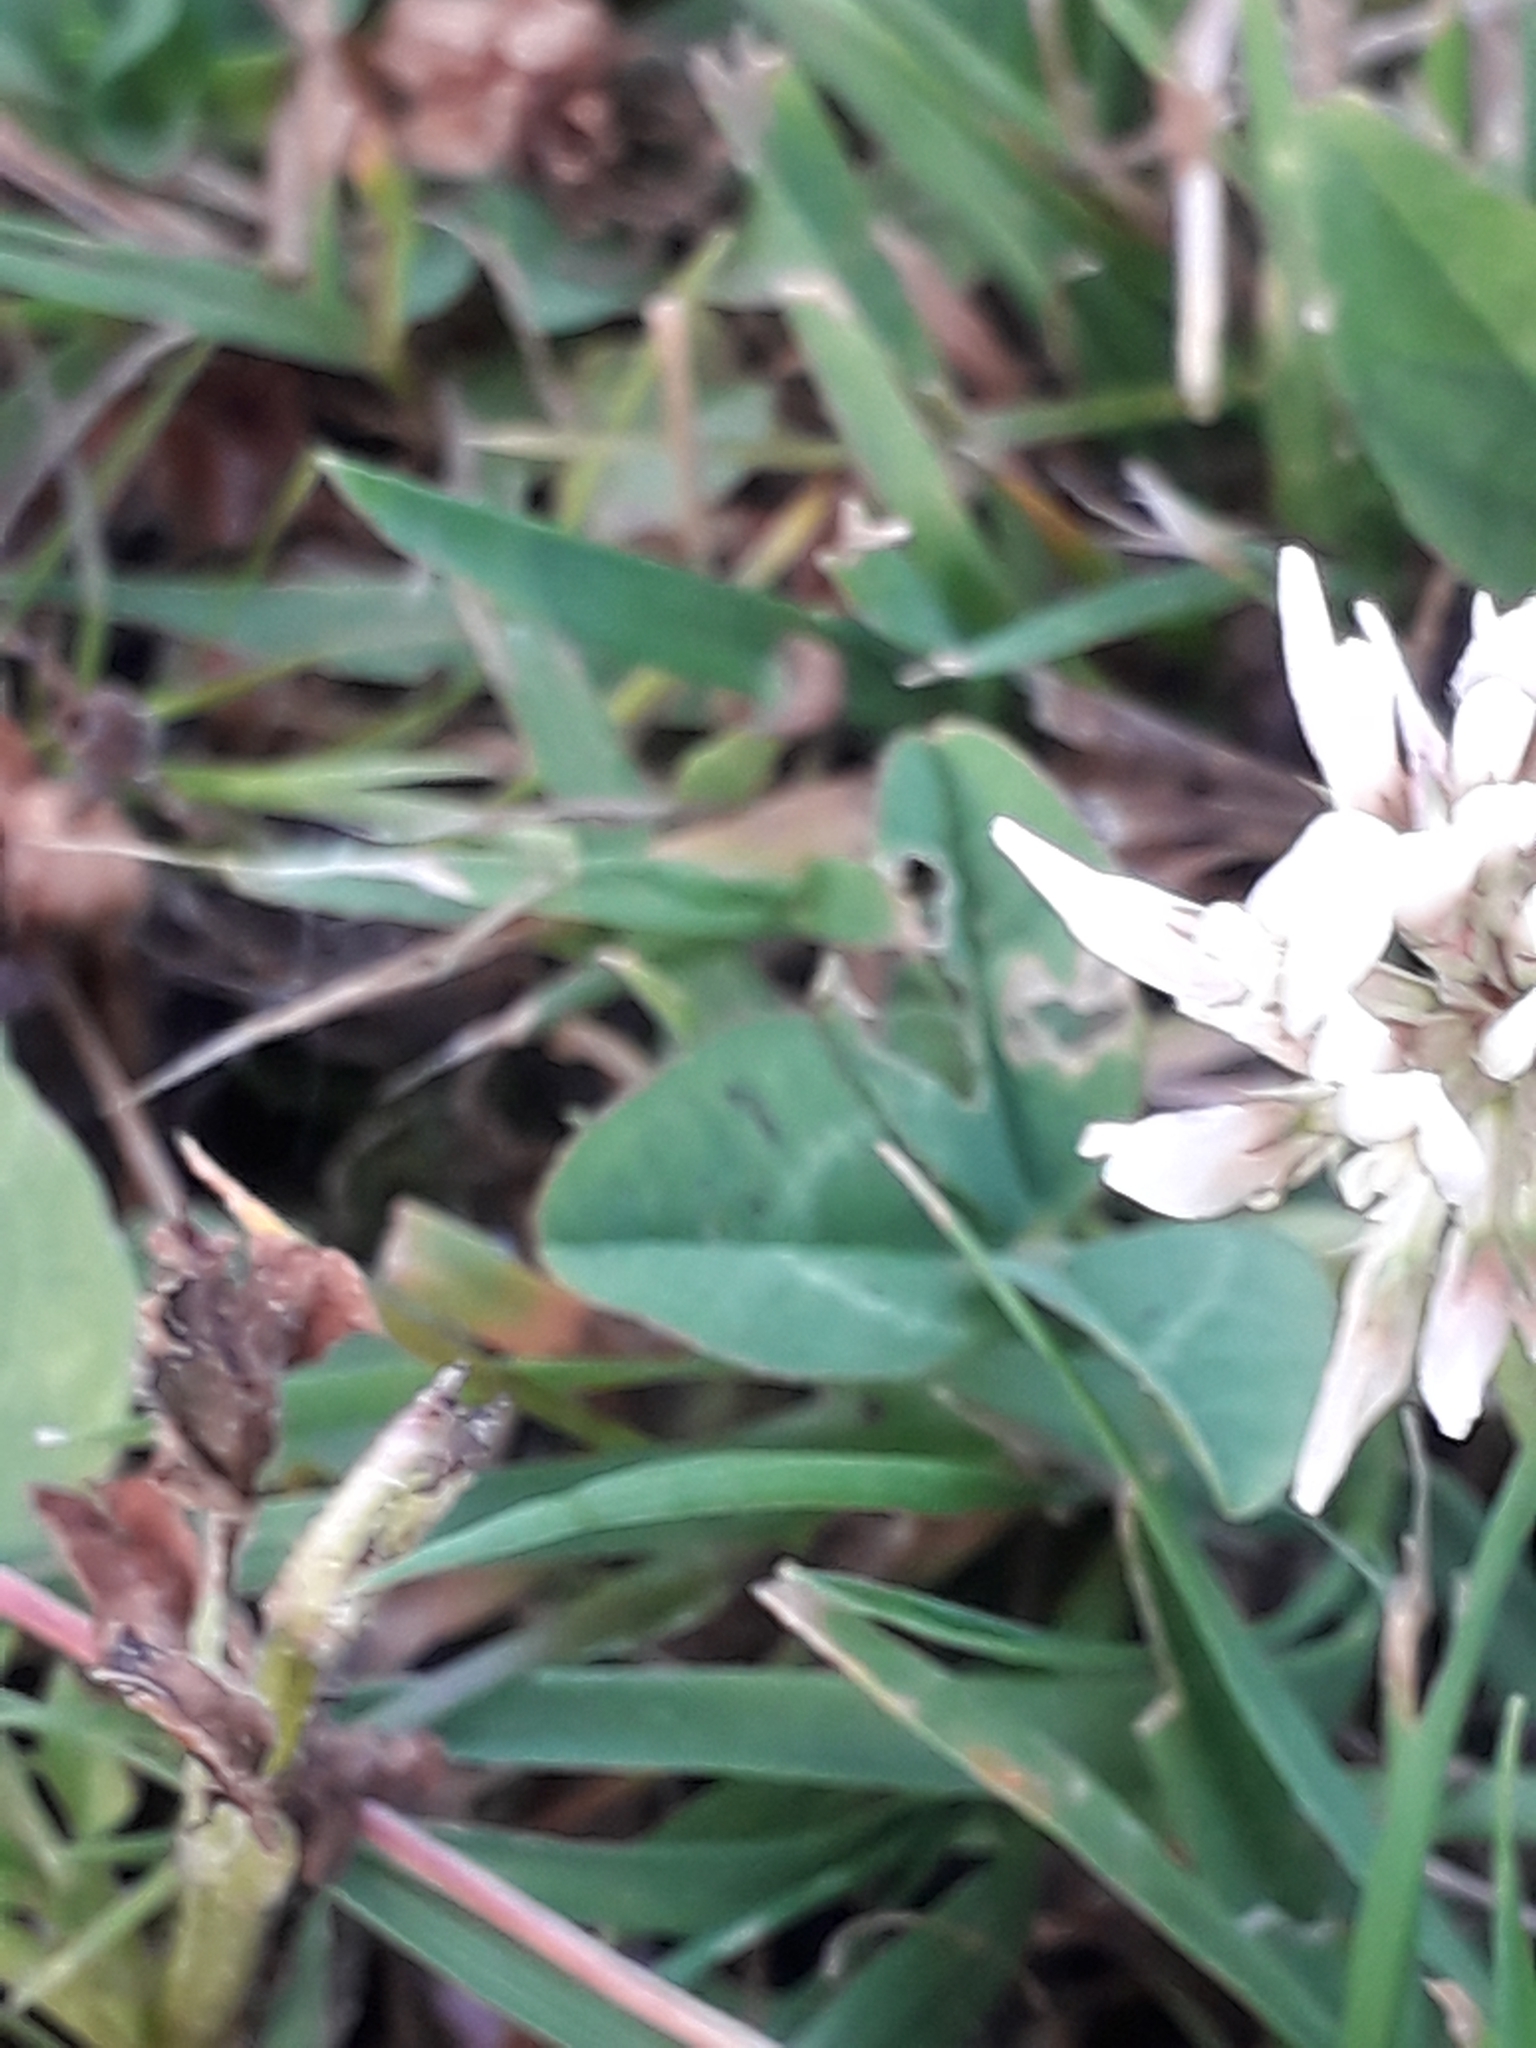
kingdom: Plantae
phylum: Tracheophyta
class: Magnoliopsida
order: Fabales
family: Fabaceae
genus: Trifolium
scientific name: Trifolium repens
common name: White clover
